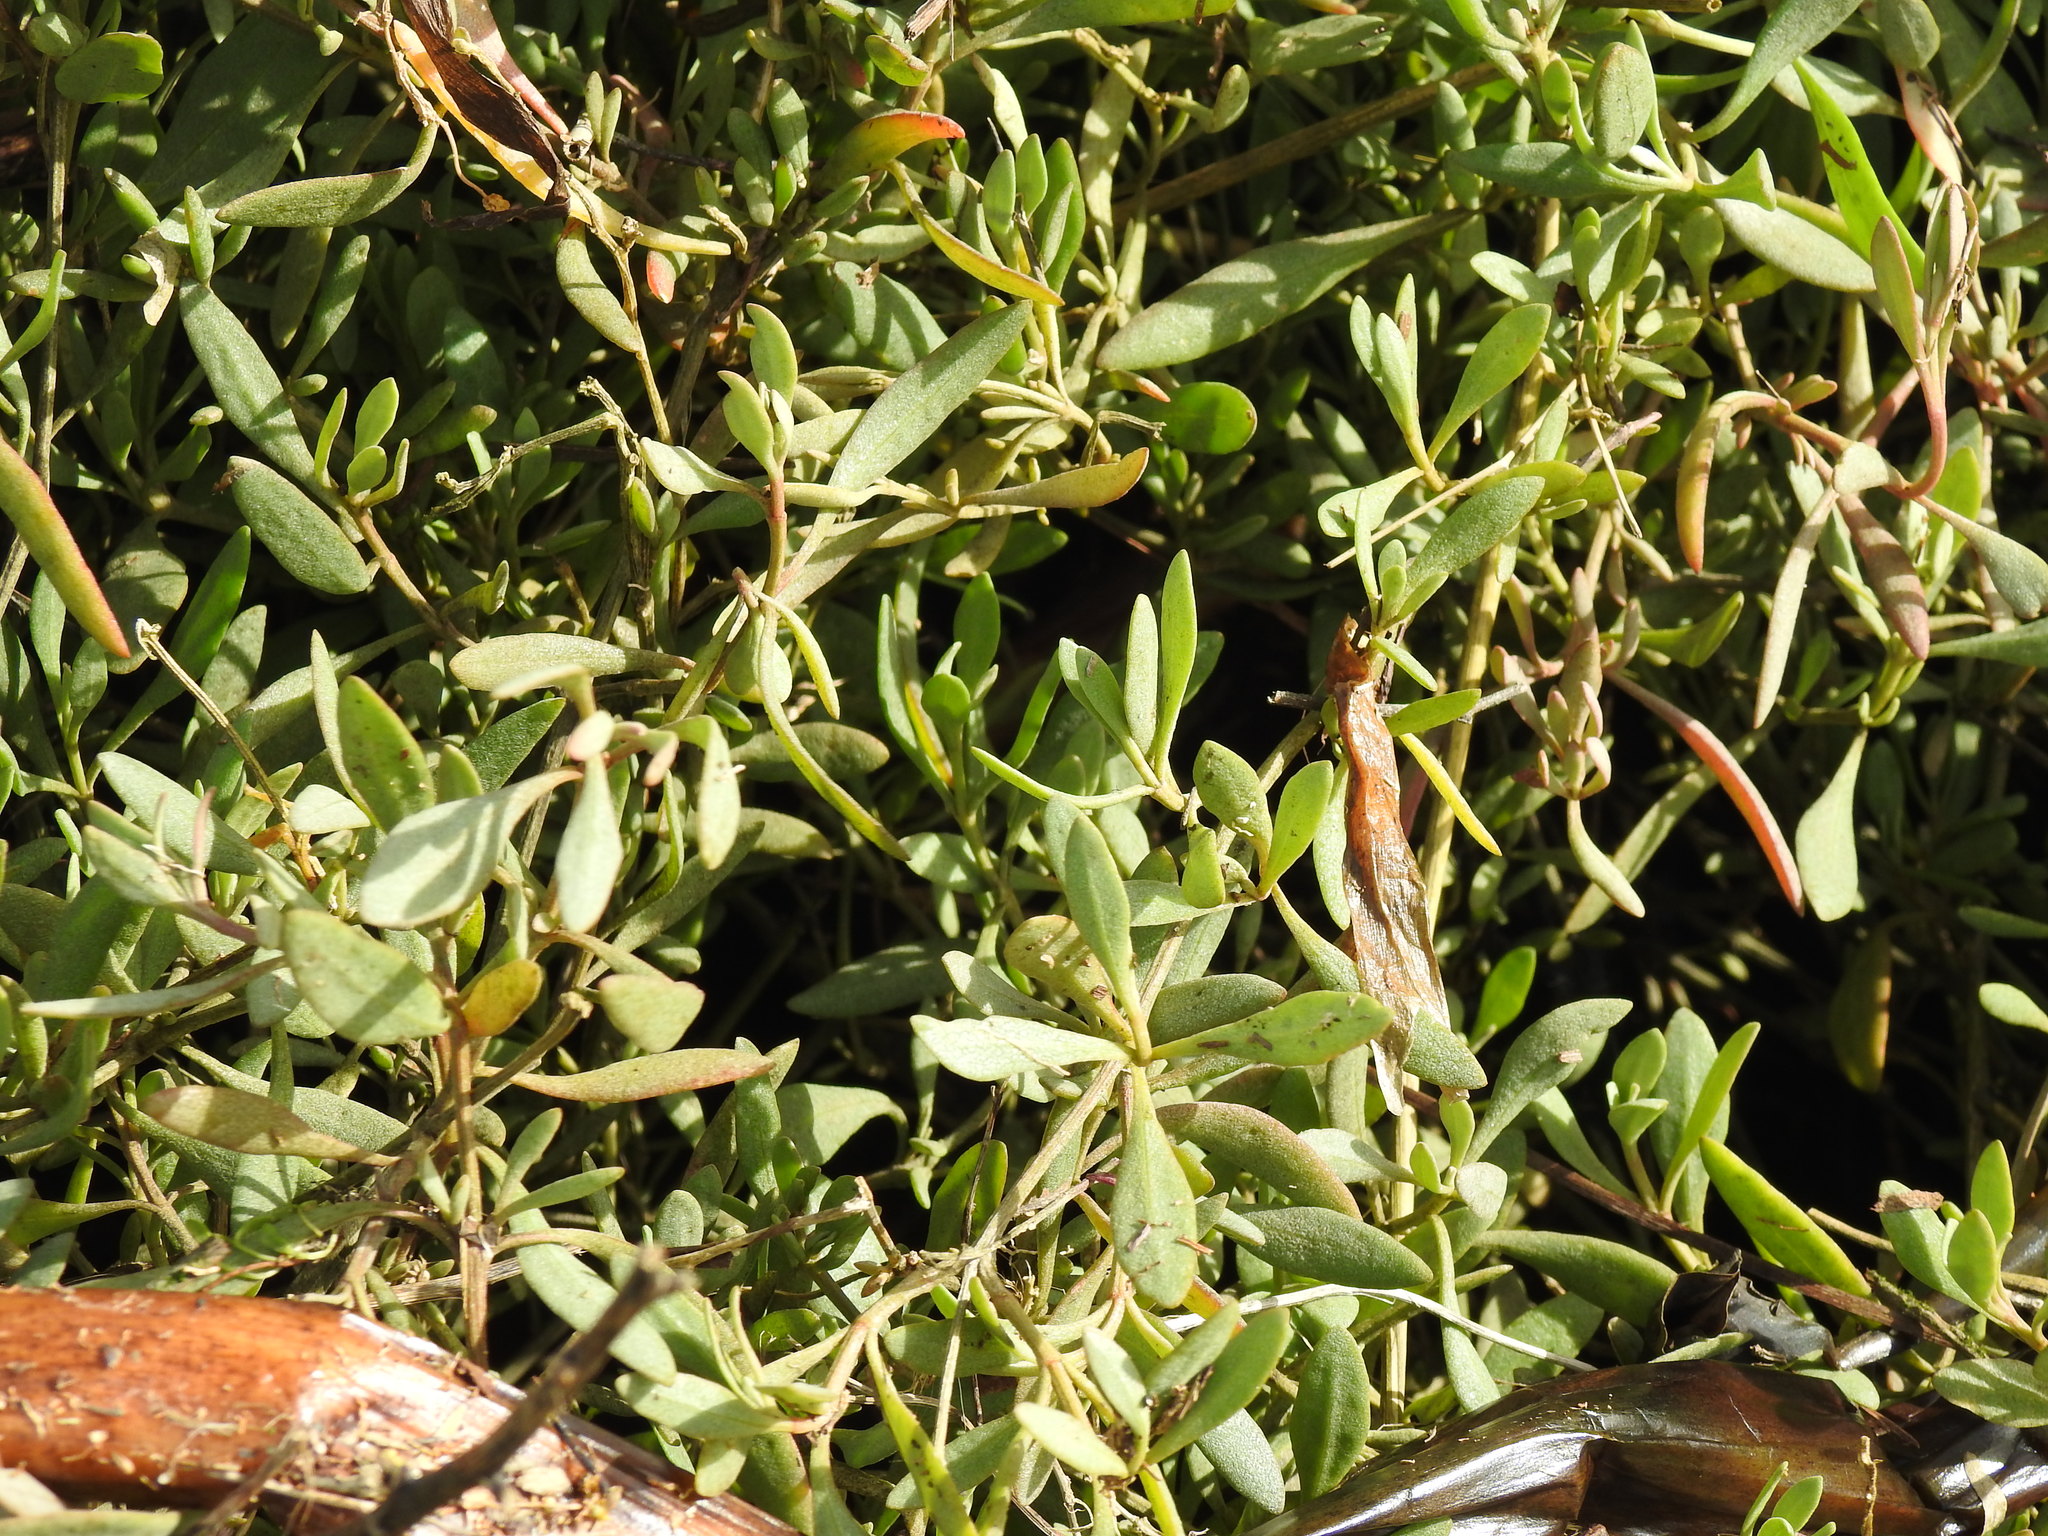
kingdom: Plantae
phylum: Tracheophyta
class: Magnoliopsida
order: Caryophyllales
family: Amaranthaceae
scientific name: Amaranthaceae
